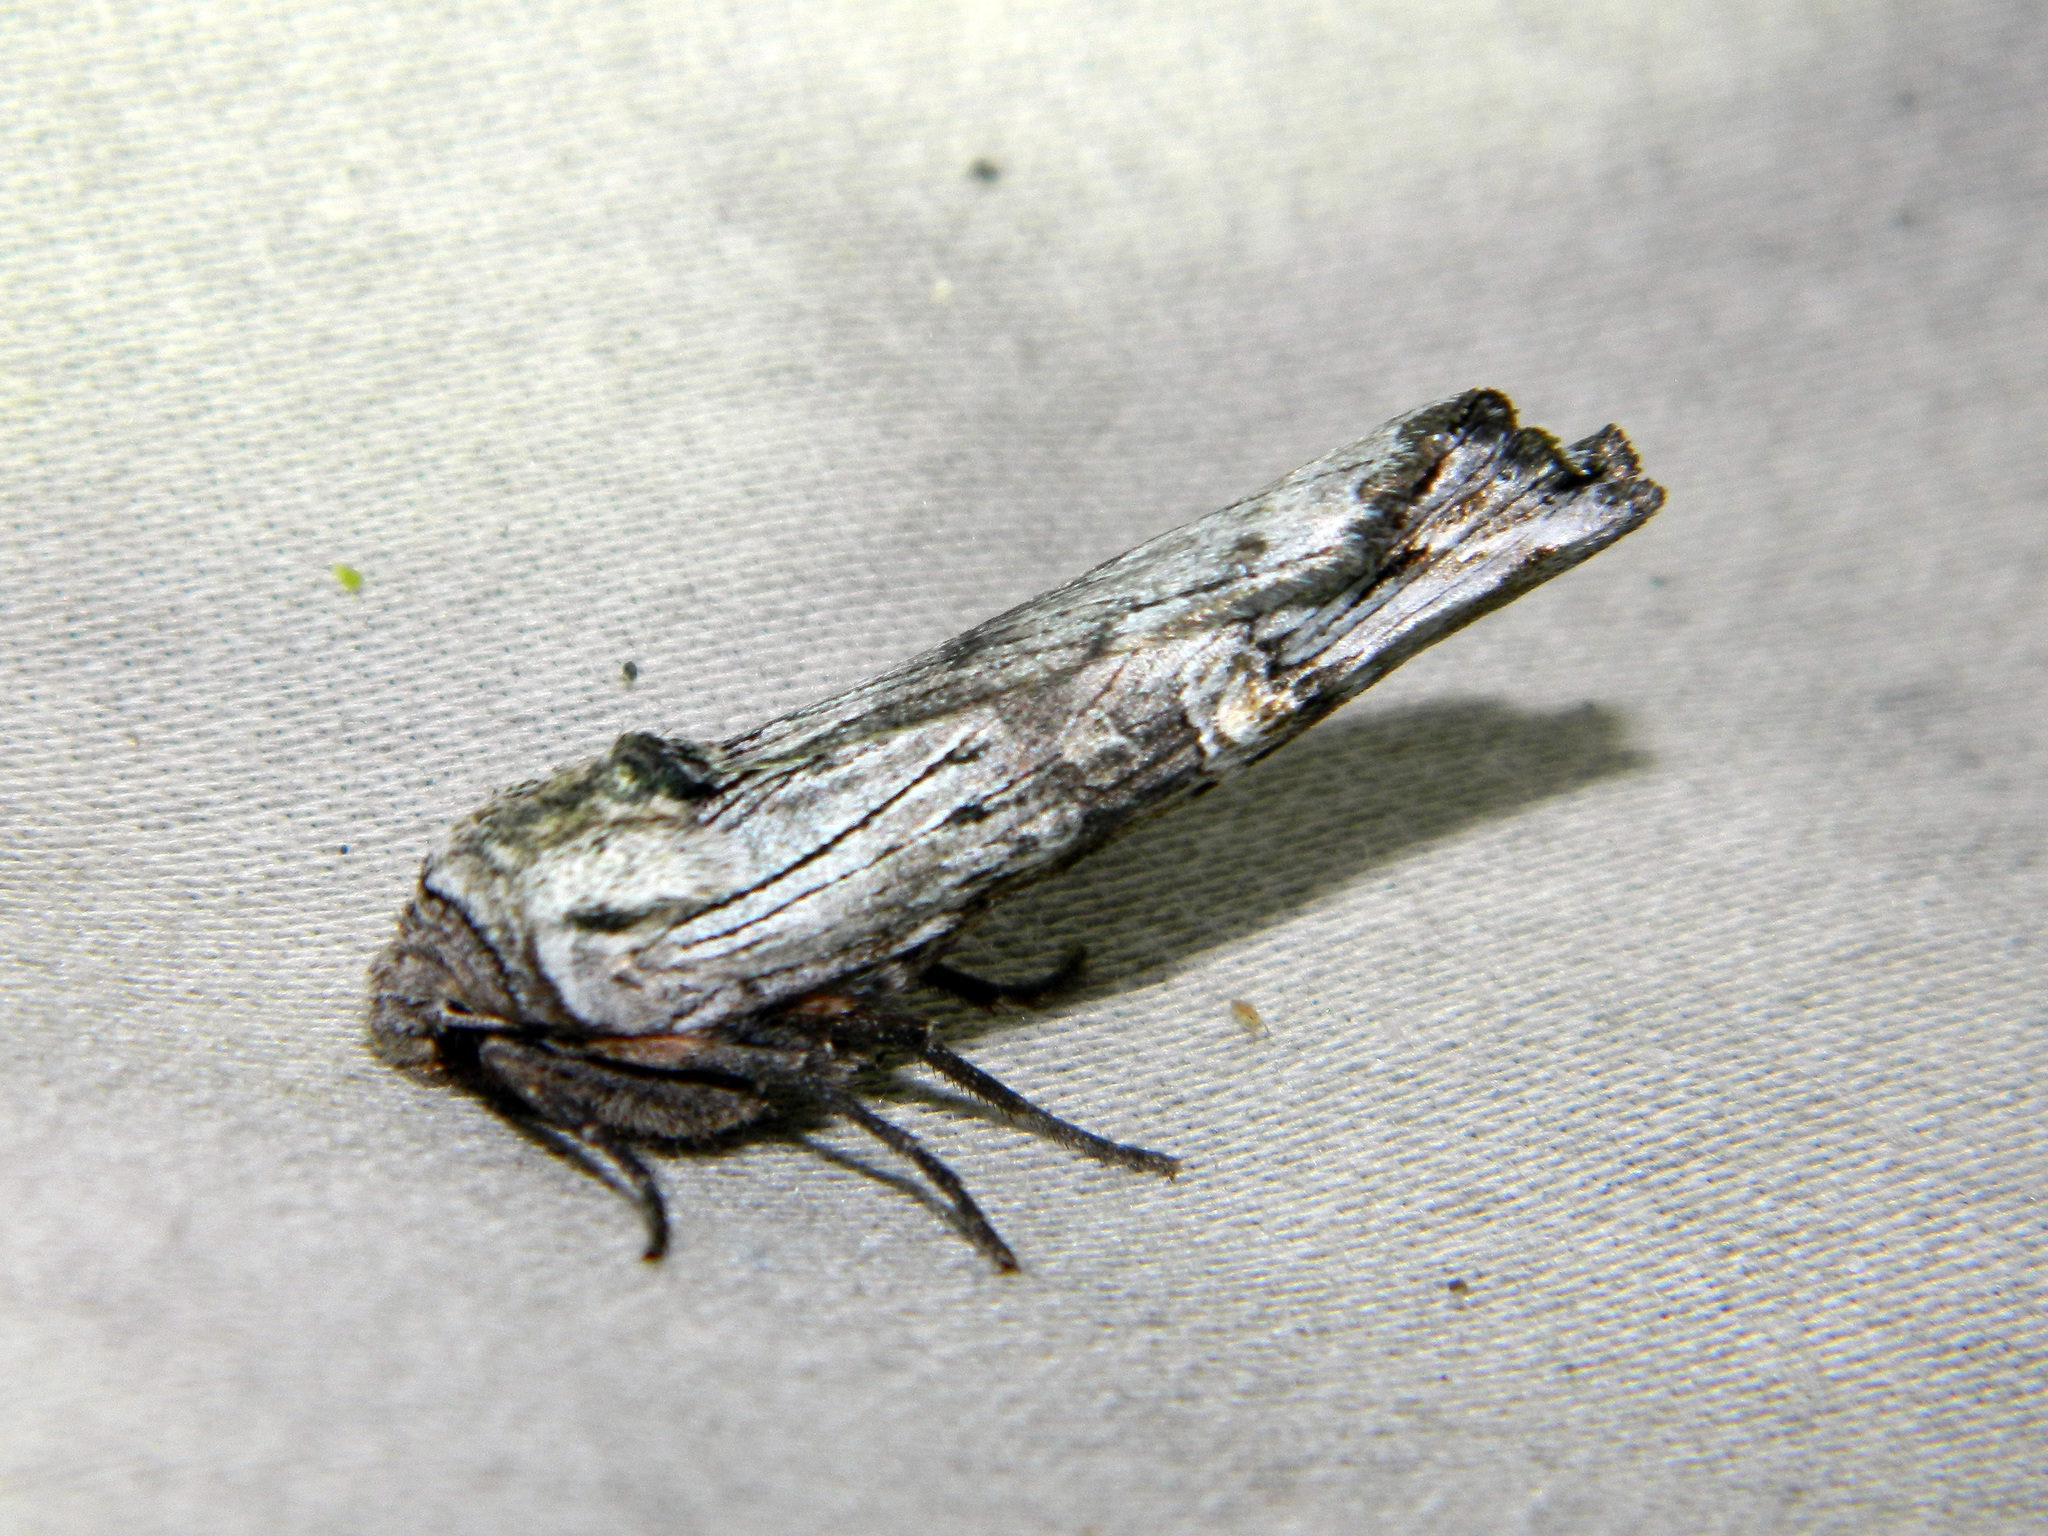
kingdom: Animalia
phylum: Arthropoda
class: Insecta
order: Lepidoptera
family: Noctuidae
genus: Xylena
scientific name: Xylena germana
